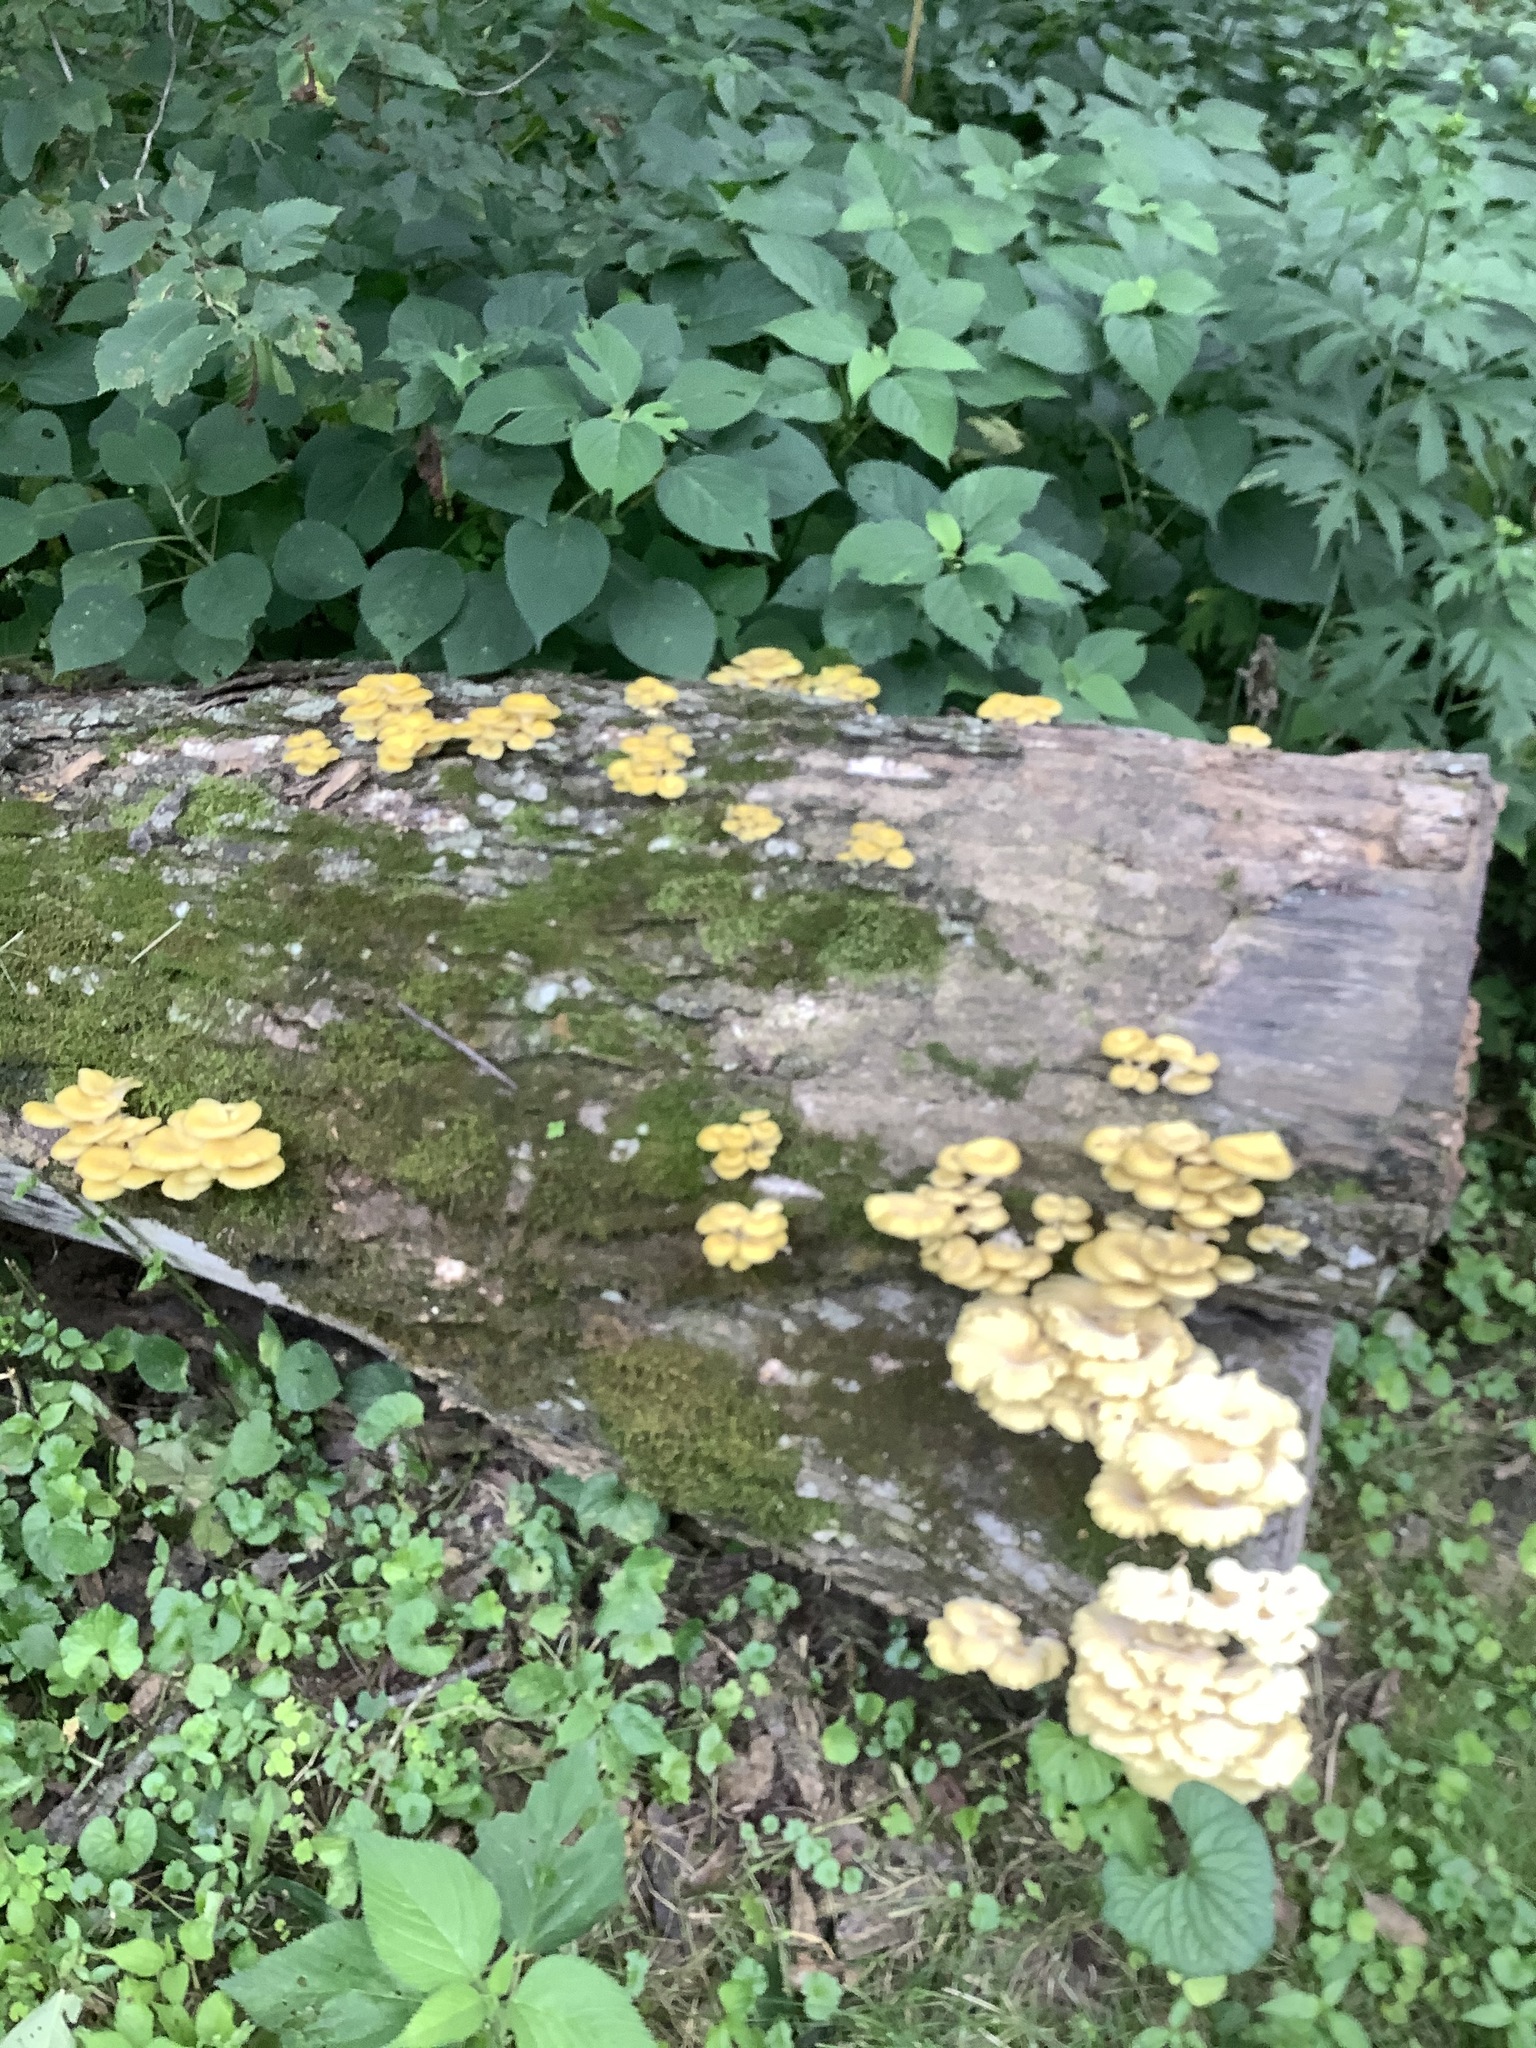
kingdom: Fungi
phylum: Basidiomycota
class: Agaricomycetes
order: Agaricales
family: Pleurotaceae
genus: Pleurotus
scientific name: Pleurotus citrinopileatus
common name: Golden oyster mushroom
